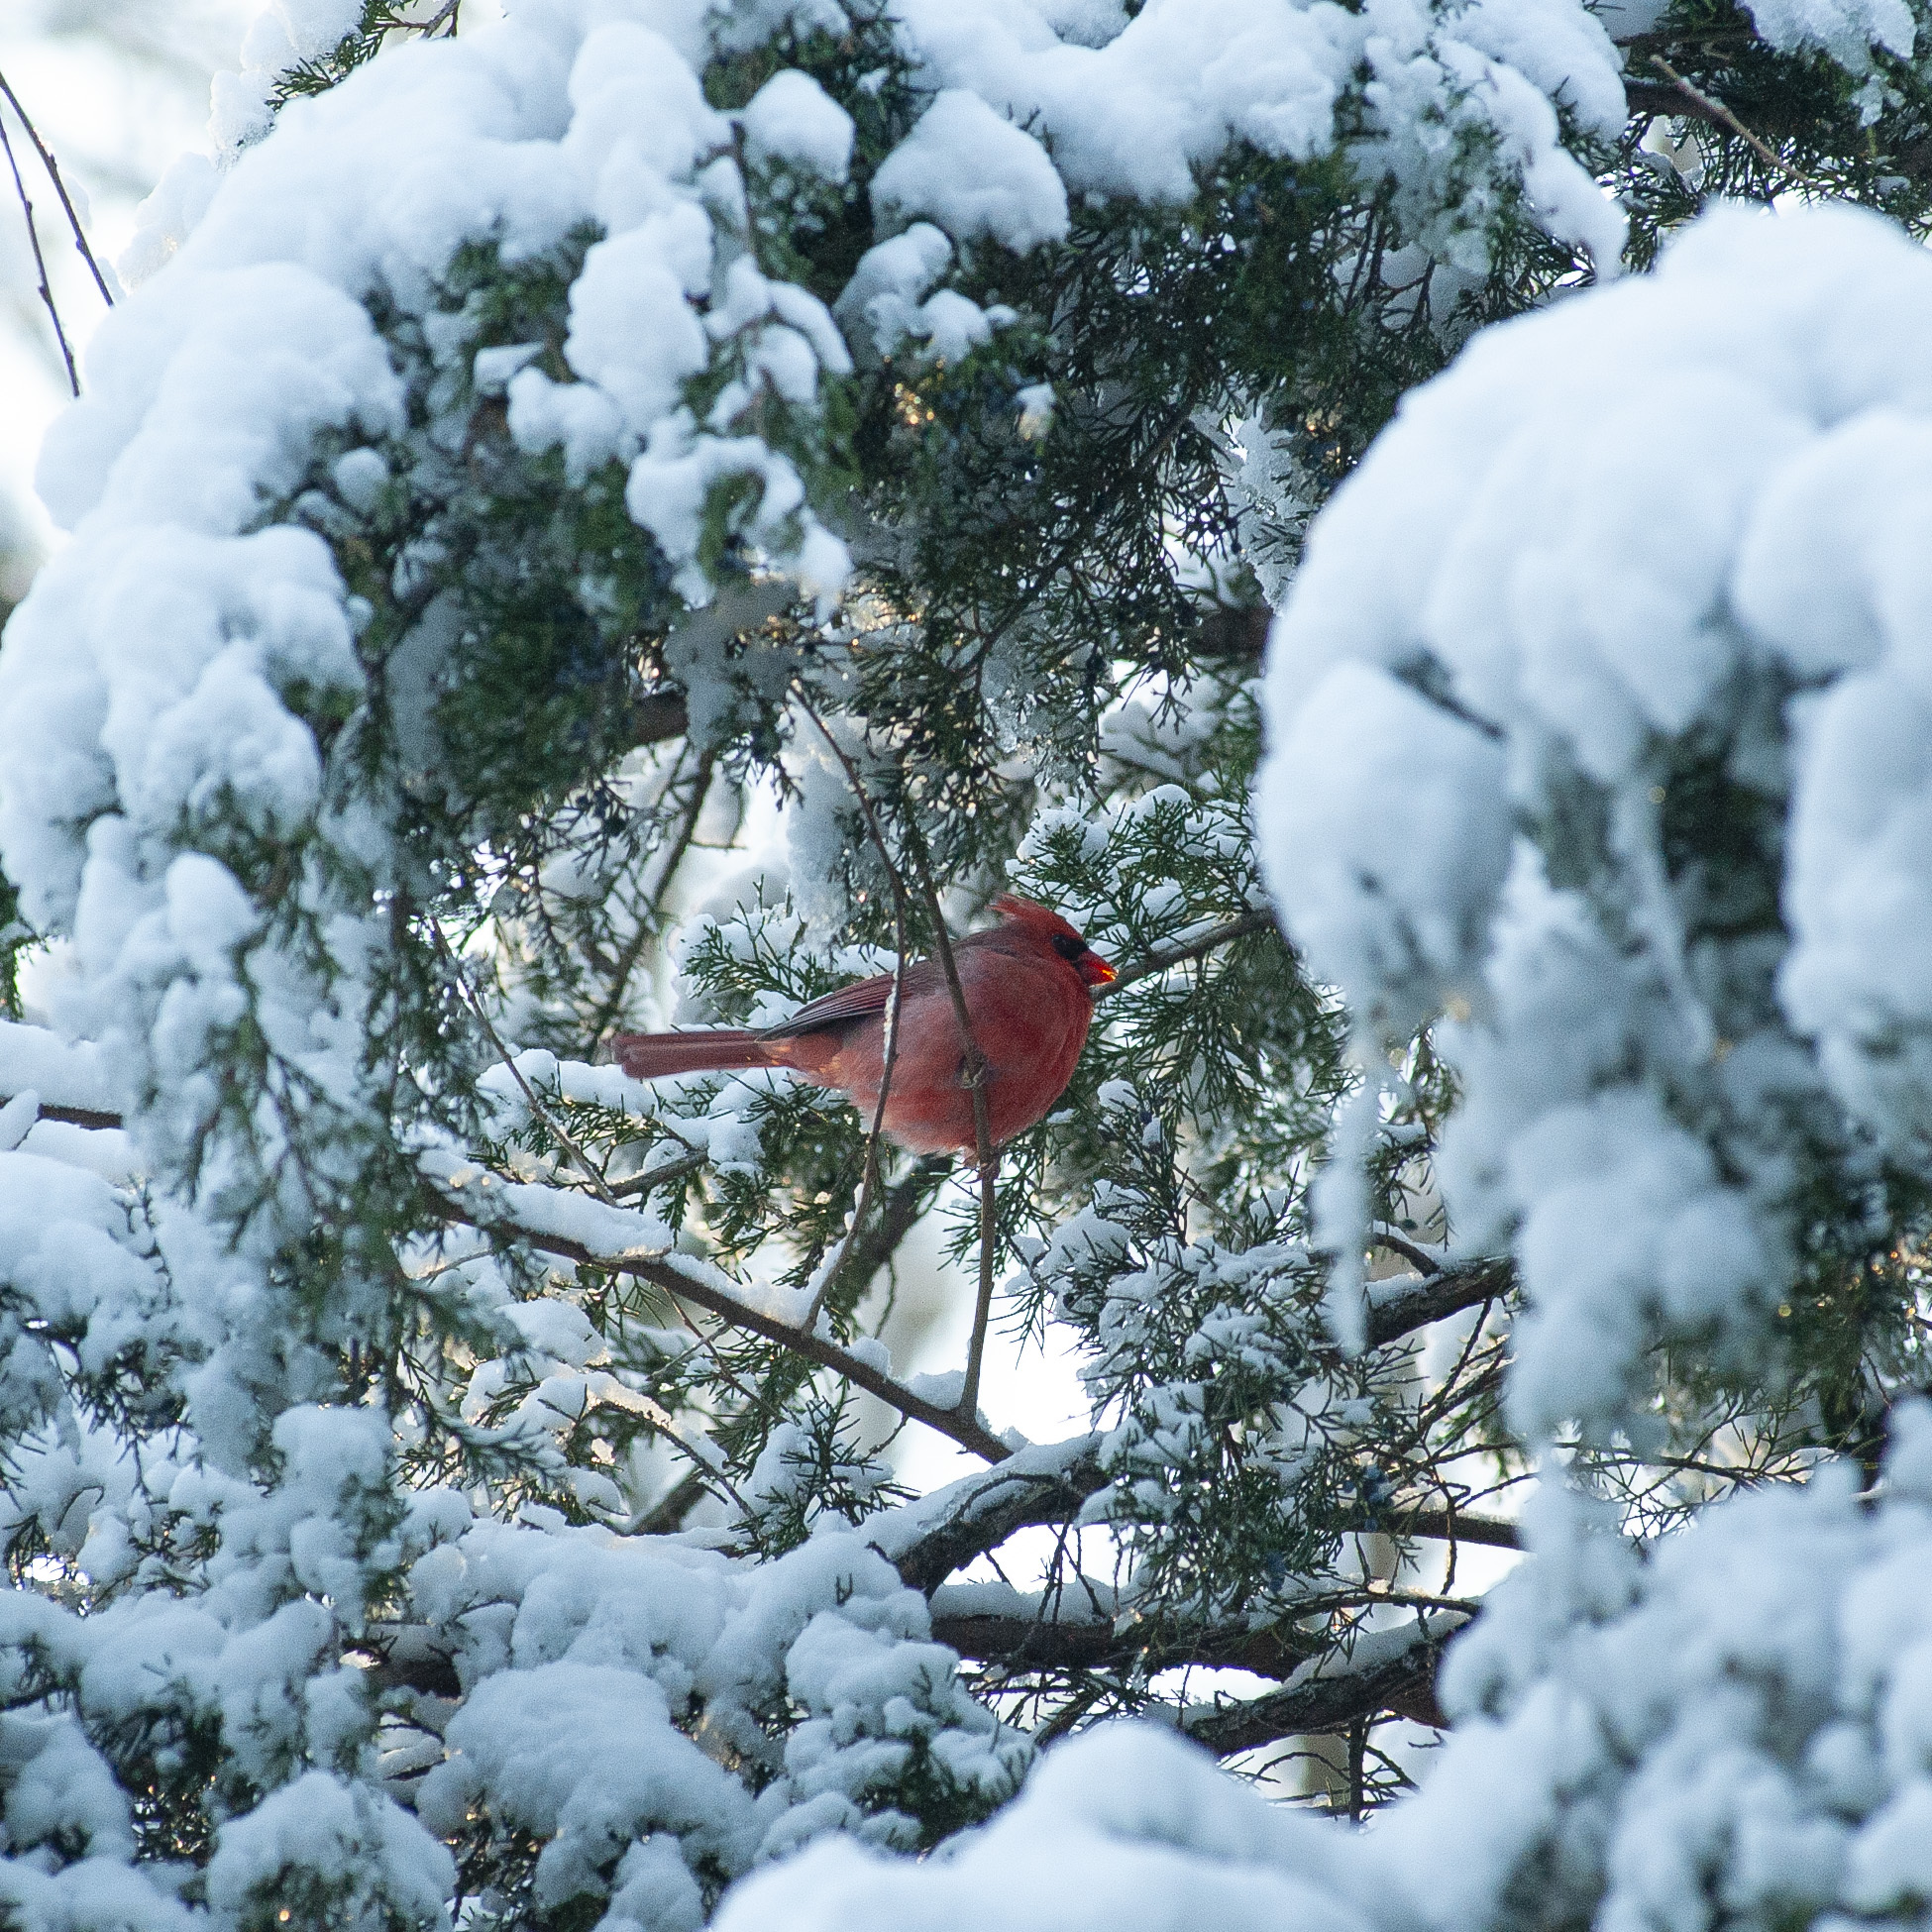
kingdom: Animalia
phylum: Chordata
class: Aves
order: Passeriformes
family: Cardinalidae
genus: Cardinalis
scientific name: Cardinalis cardinalis
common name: Northern cardinal
